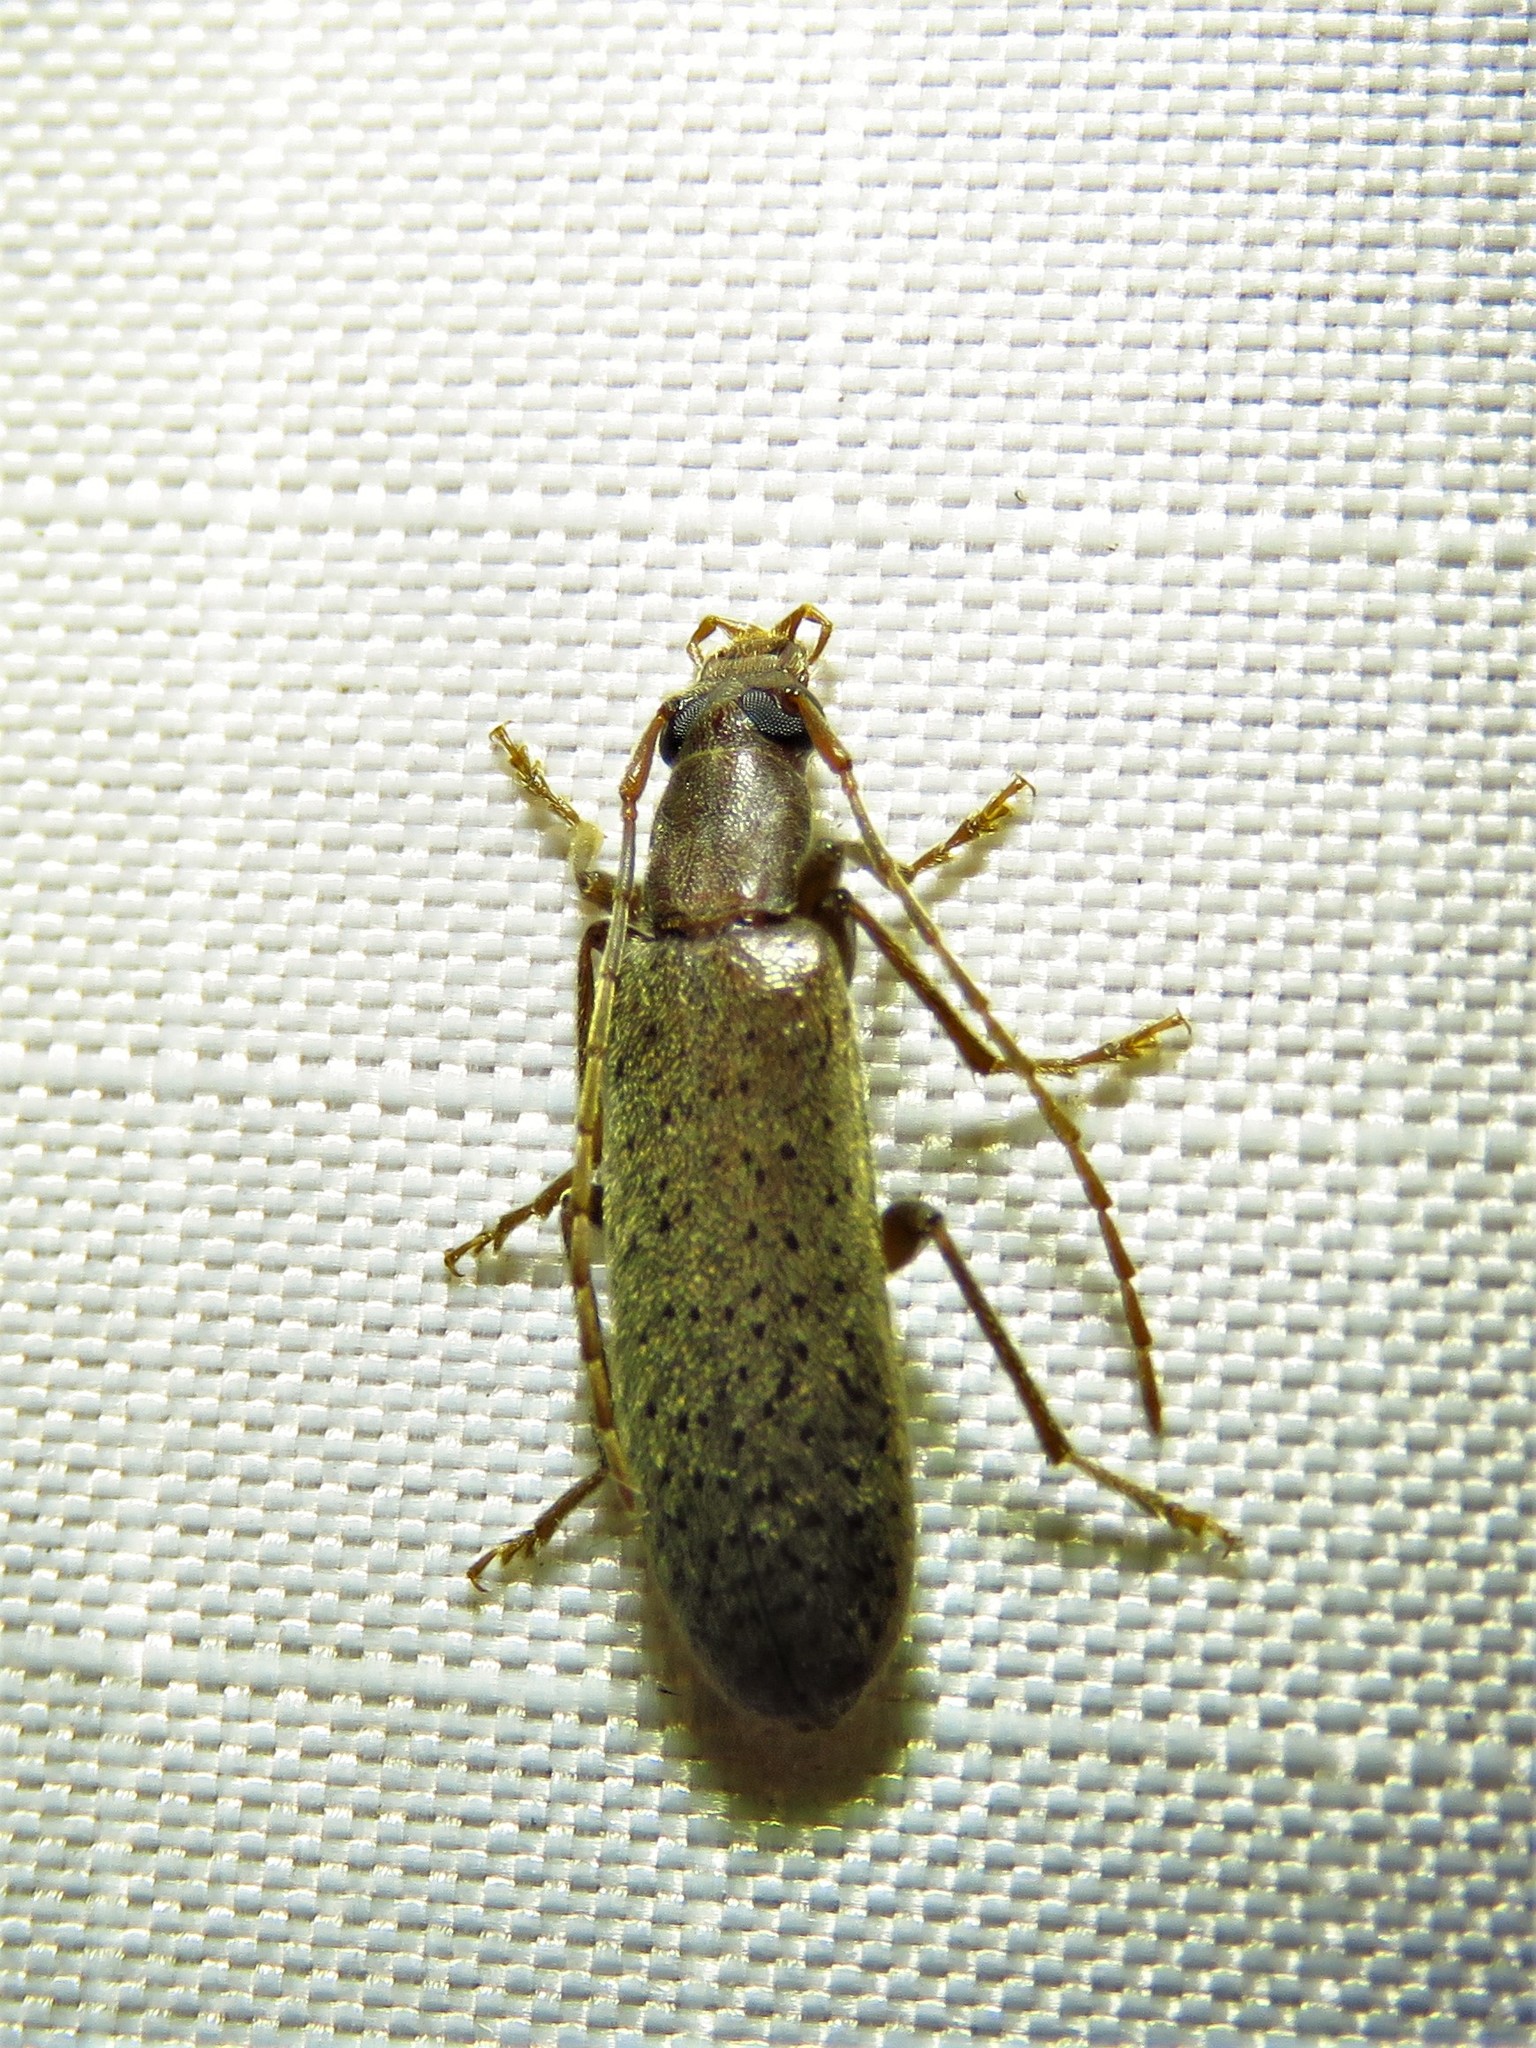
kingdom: Animalia
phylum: Arthropoda
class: Insecta
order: Coleoptera
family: Oedemeridae
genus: Sparedrus
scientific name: Sparedrus aspersus
